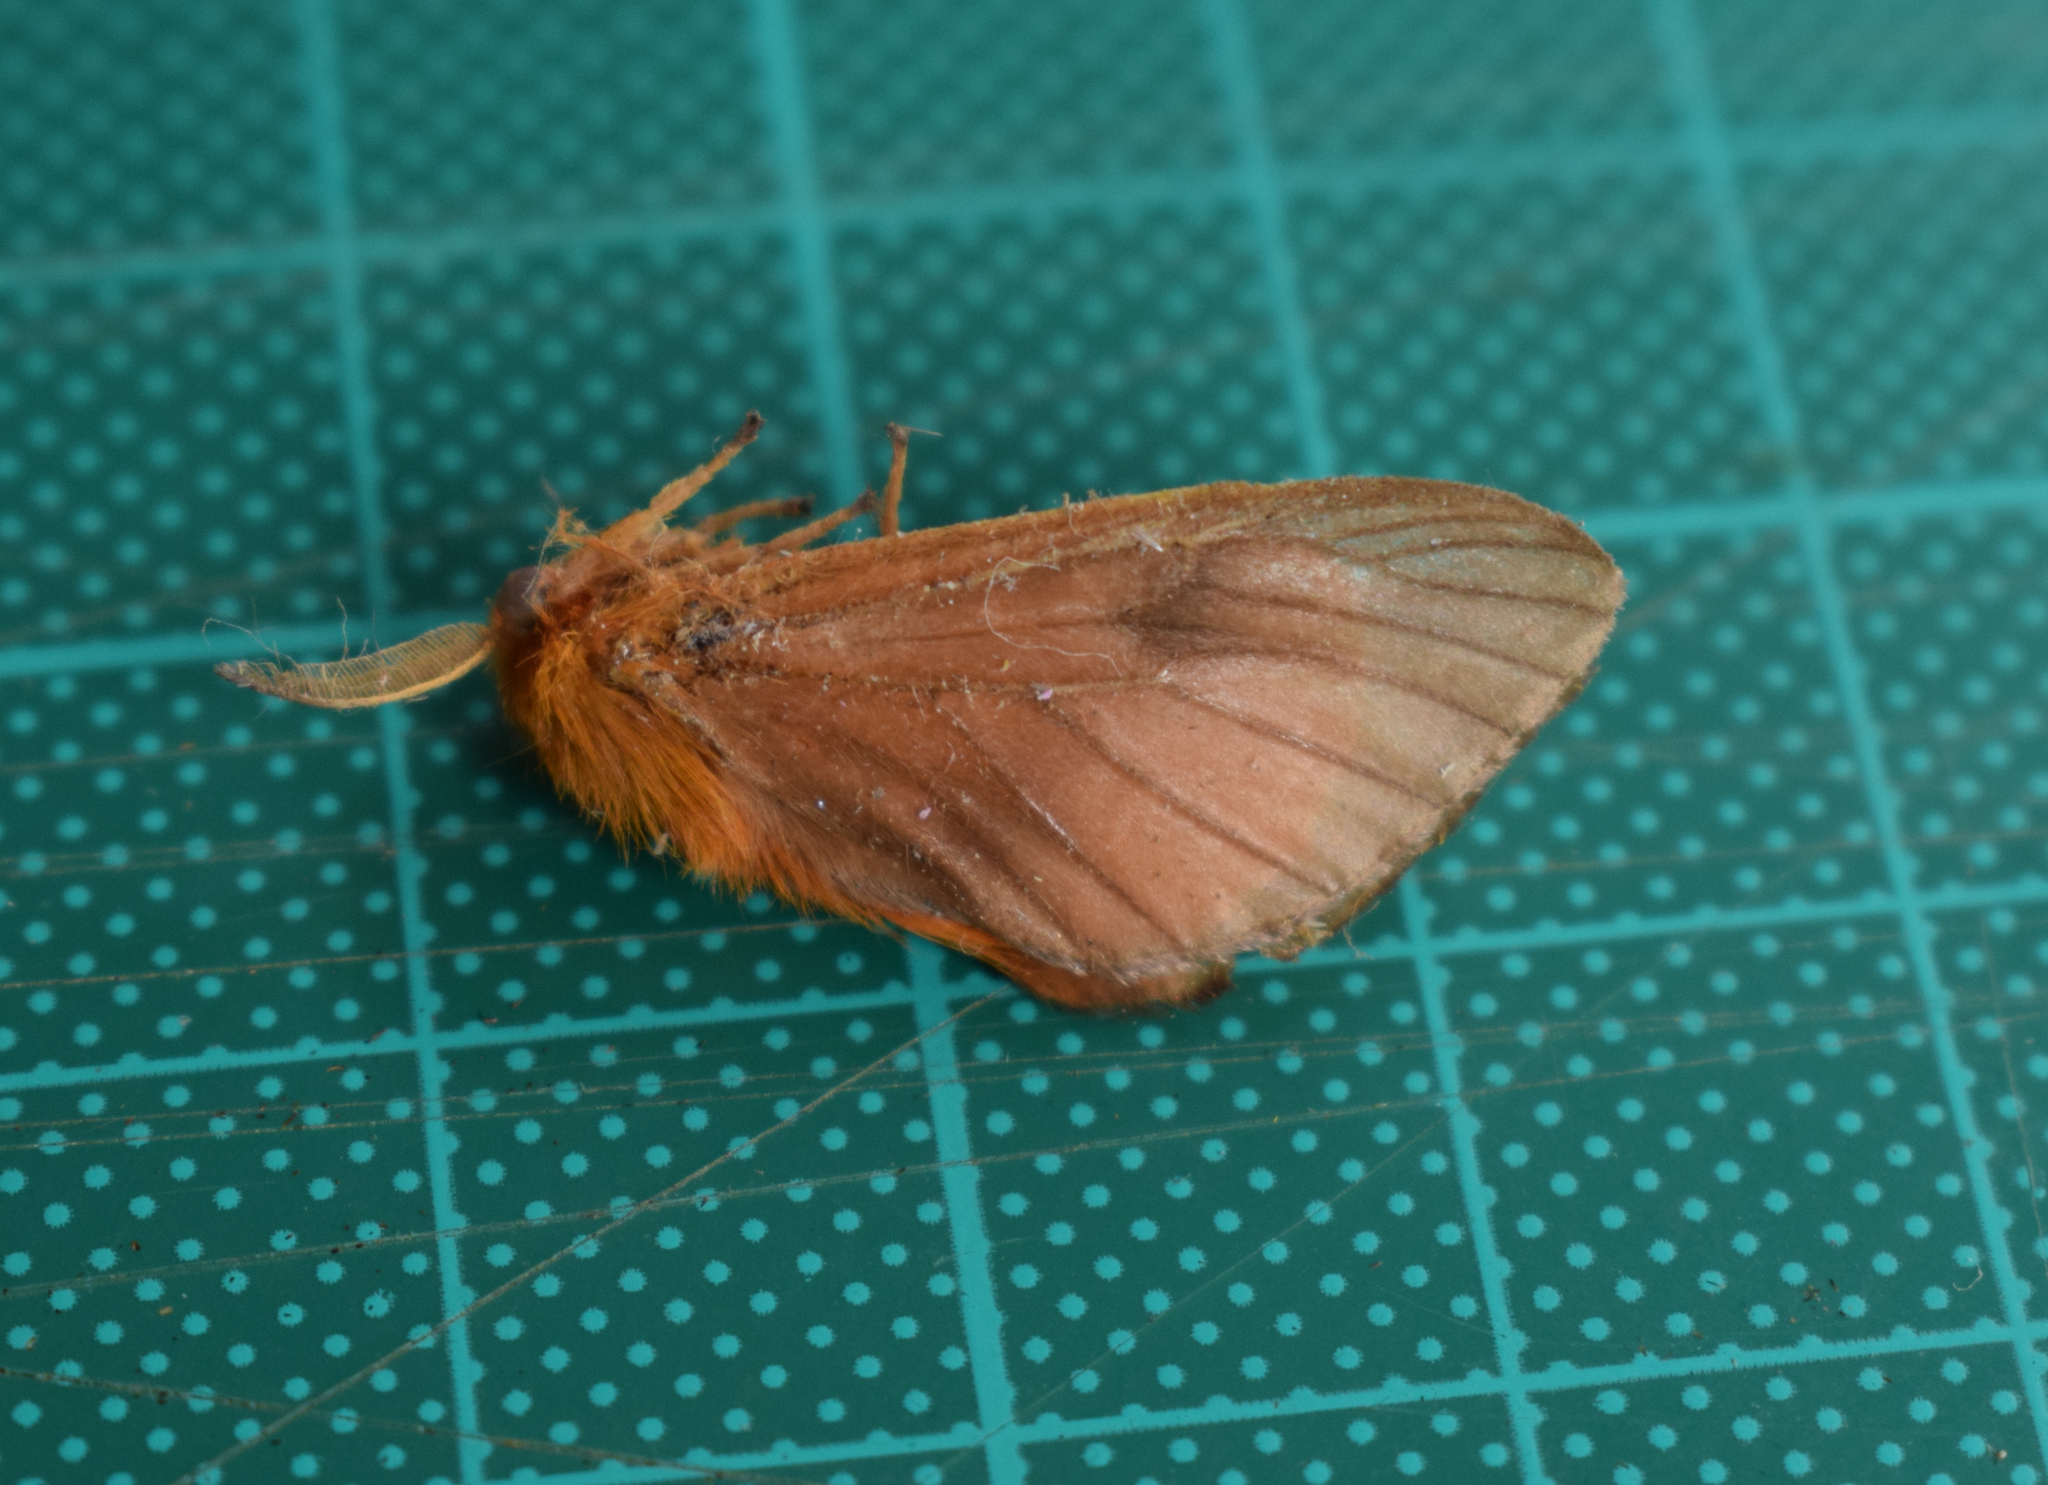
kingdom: Animalia
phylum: Arthropoda
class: Insecta
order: Lepidoptera
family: Megalopygidae
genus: Thoscora
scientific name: Thoscora acca
